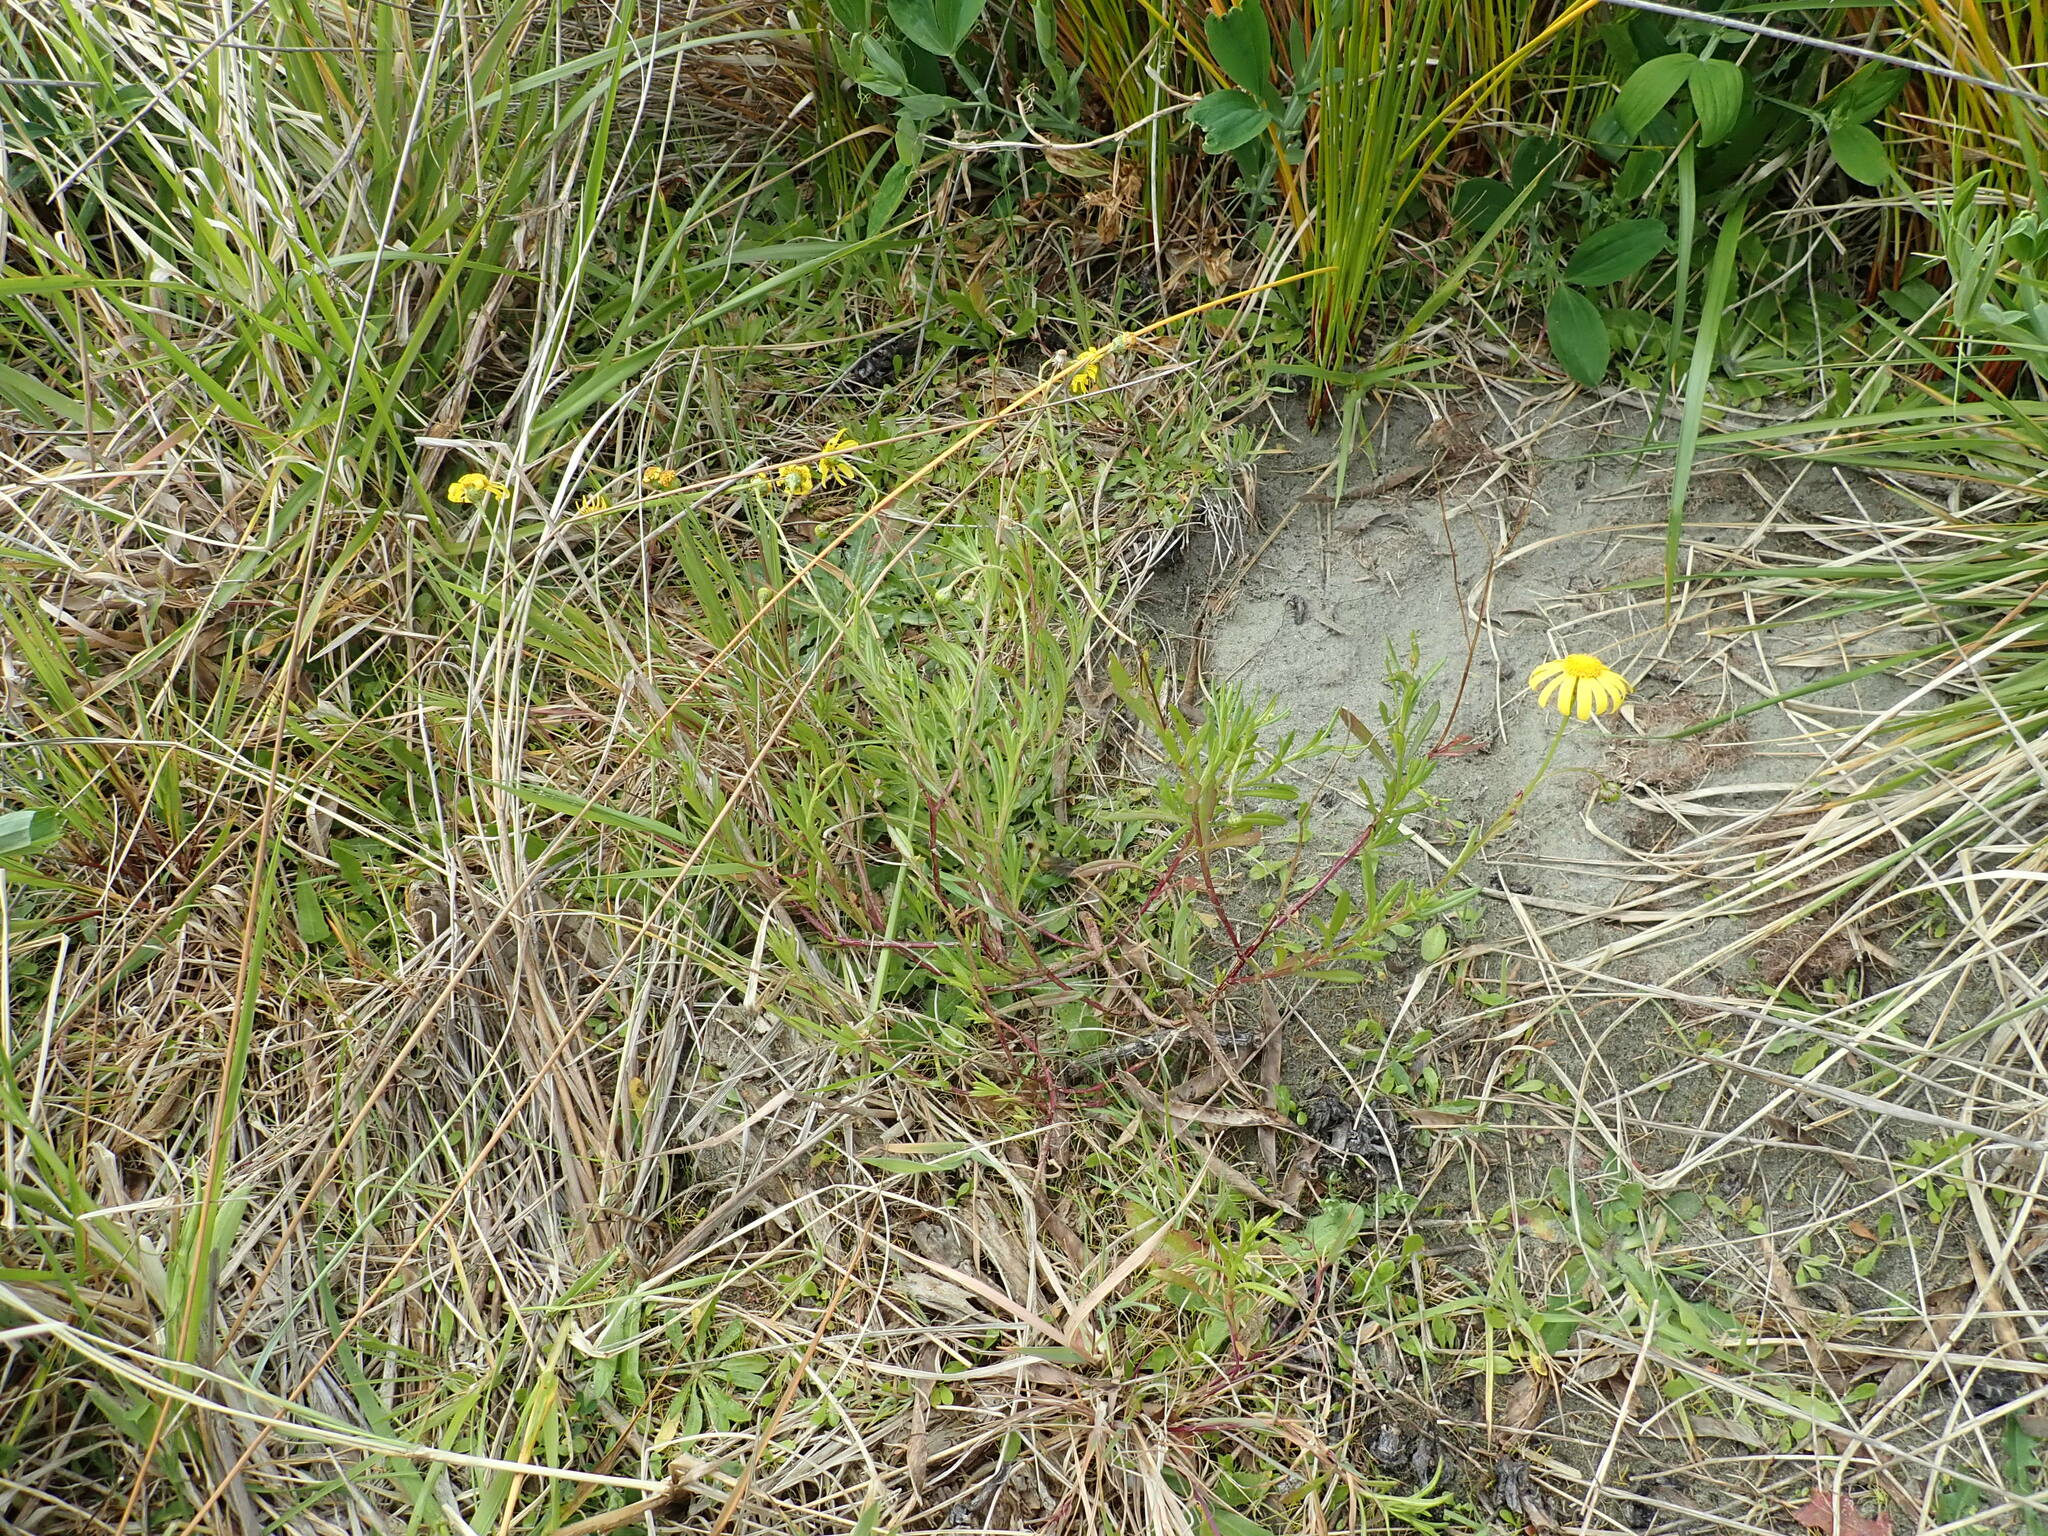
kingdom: Plantae
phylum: Tracheophyta
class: Magnoliopsida
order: Asterales
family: Asteraceae
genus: Senecio
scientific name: Senecio skirrhodon
